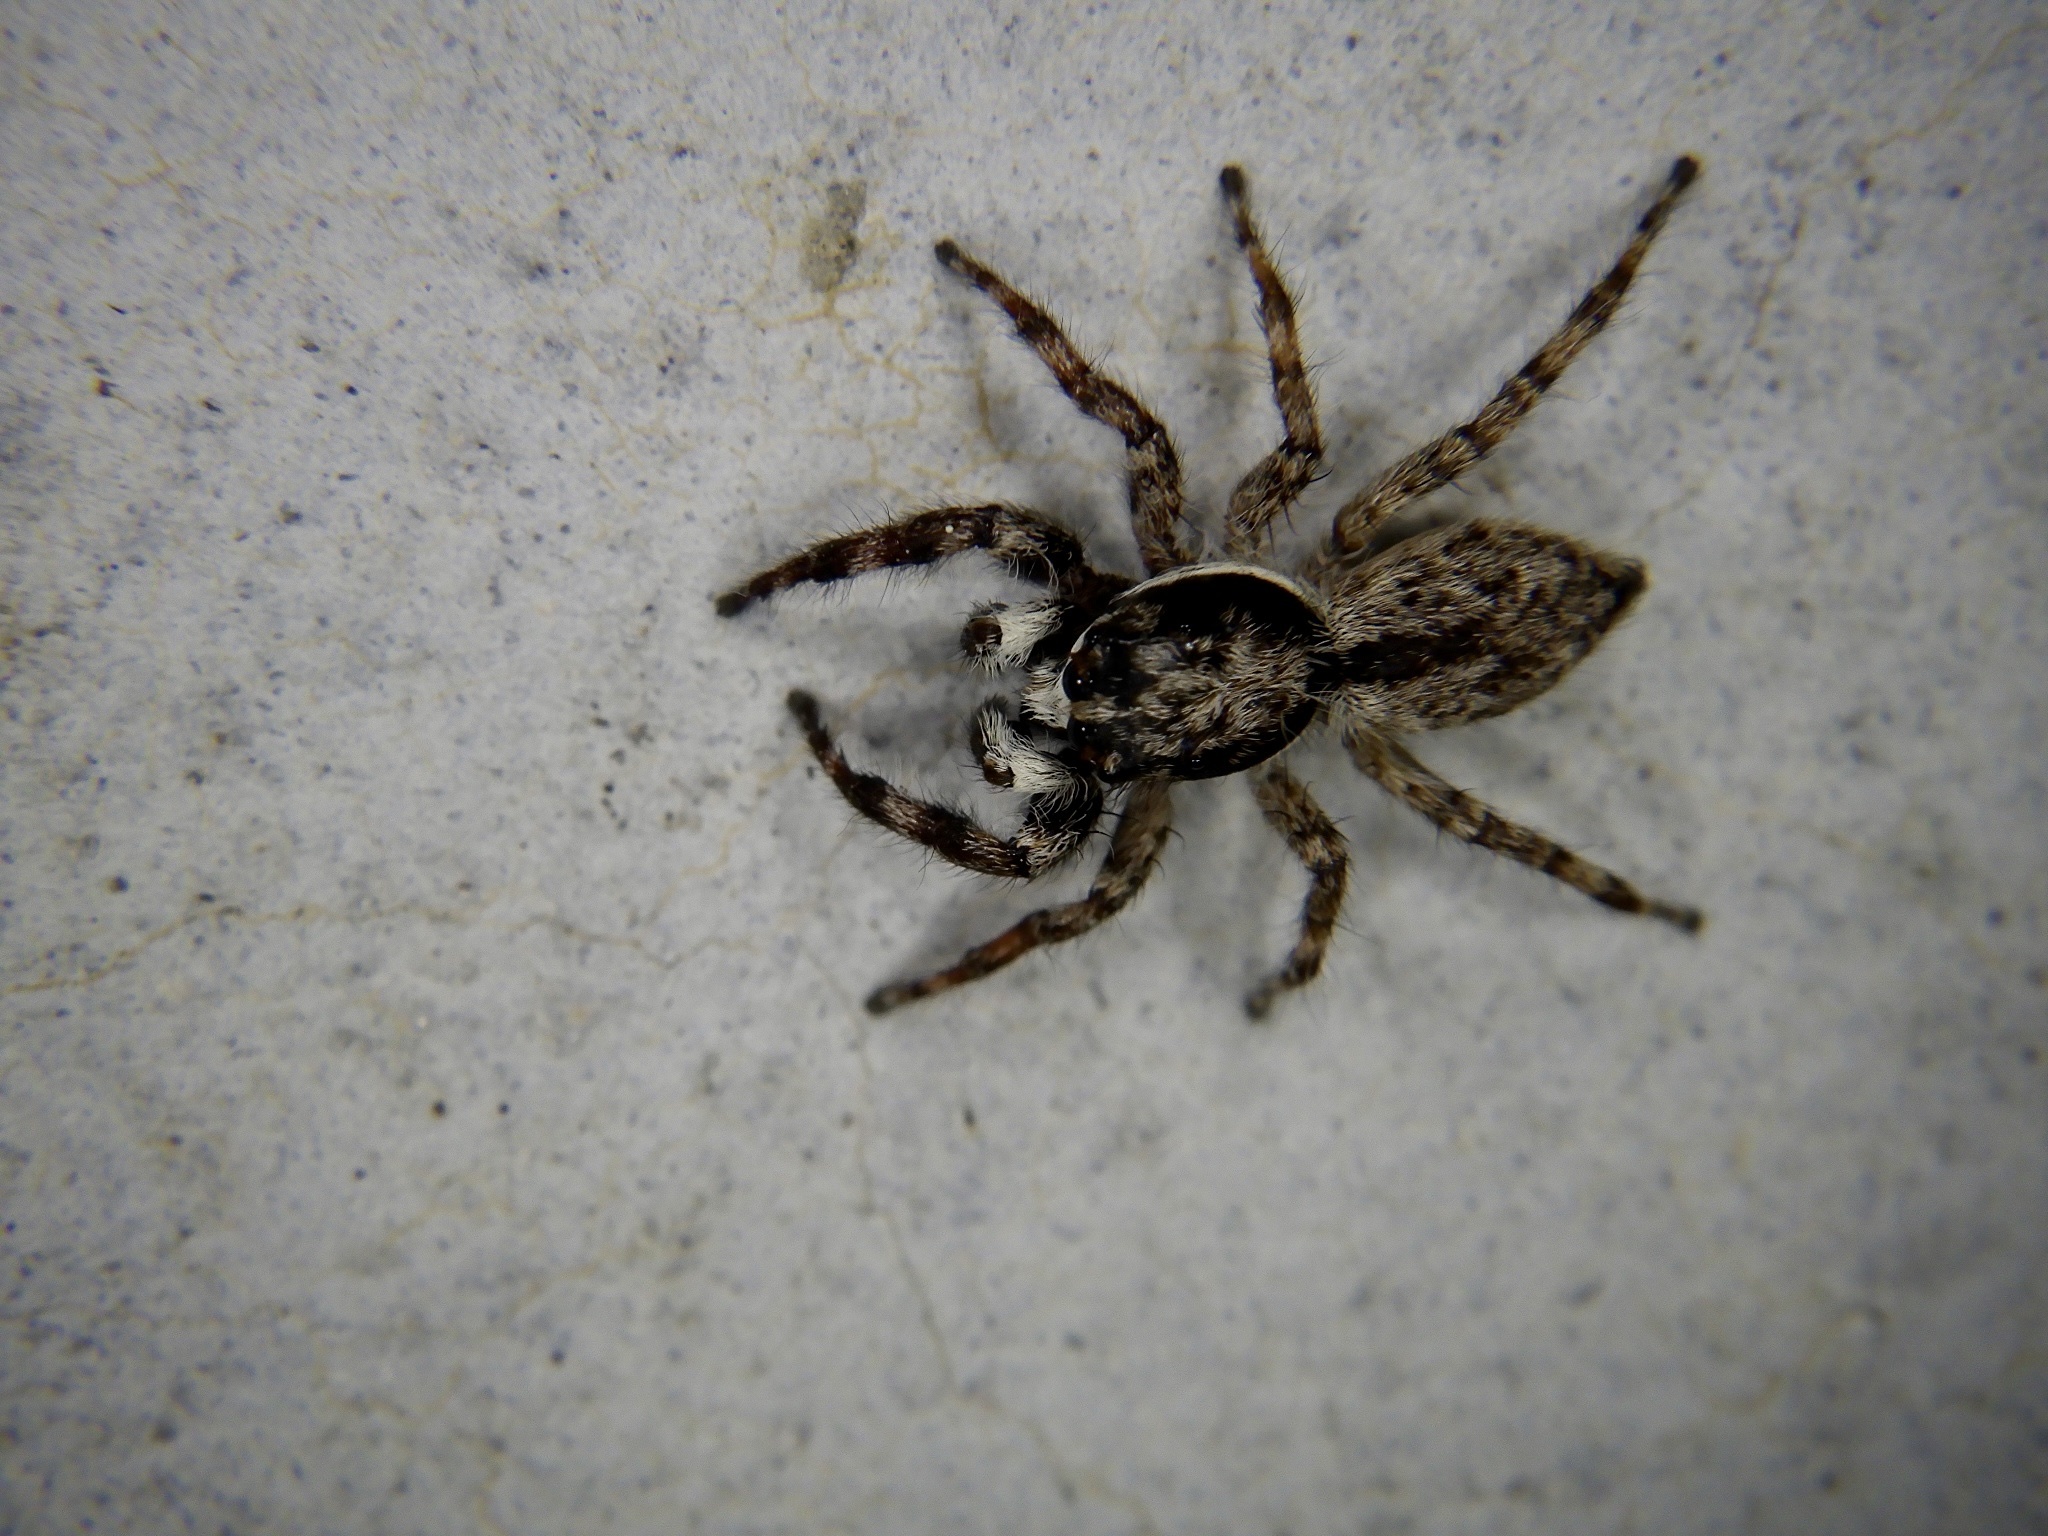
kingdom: Animalia
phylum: Arthropoda
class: Arachnida
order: Araneae
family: Salticidae
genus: Menemerus
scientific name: Menemerus fulvus
